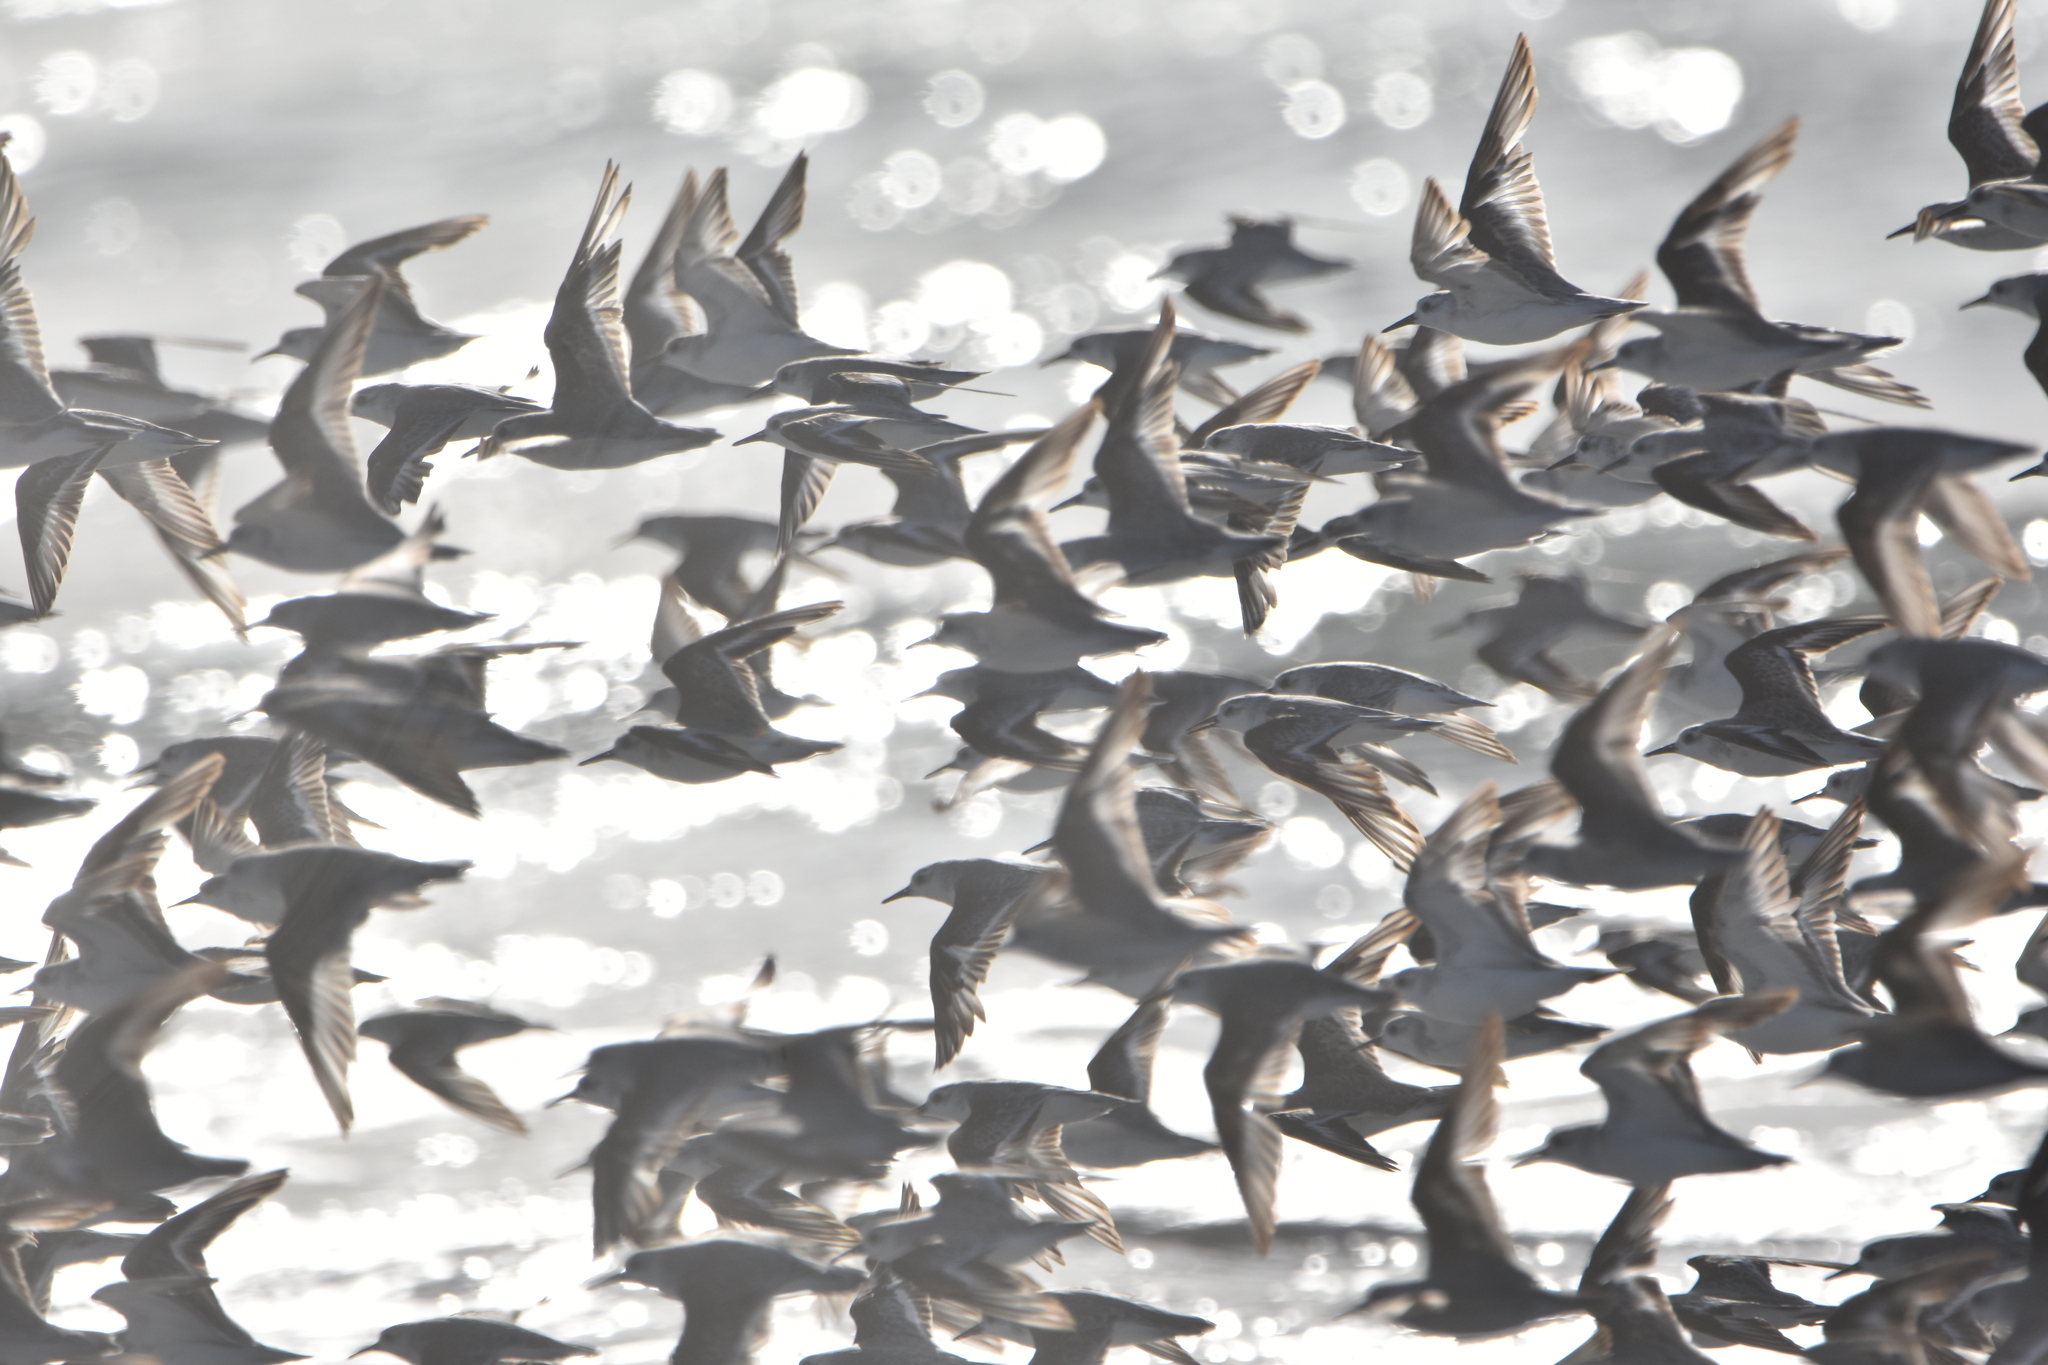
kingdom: Animalia
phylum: Chordata
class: Aves
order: Charadriiformes
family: Scolopacidae
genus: Calidris
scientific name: Calidris alba
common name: Sanderling
